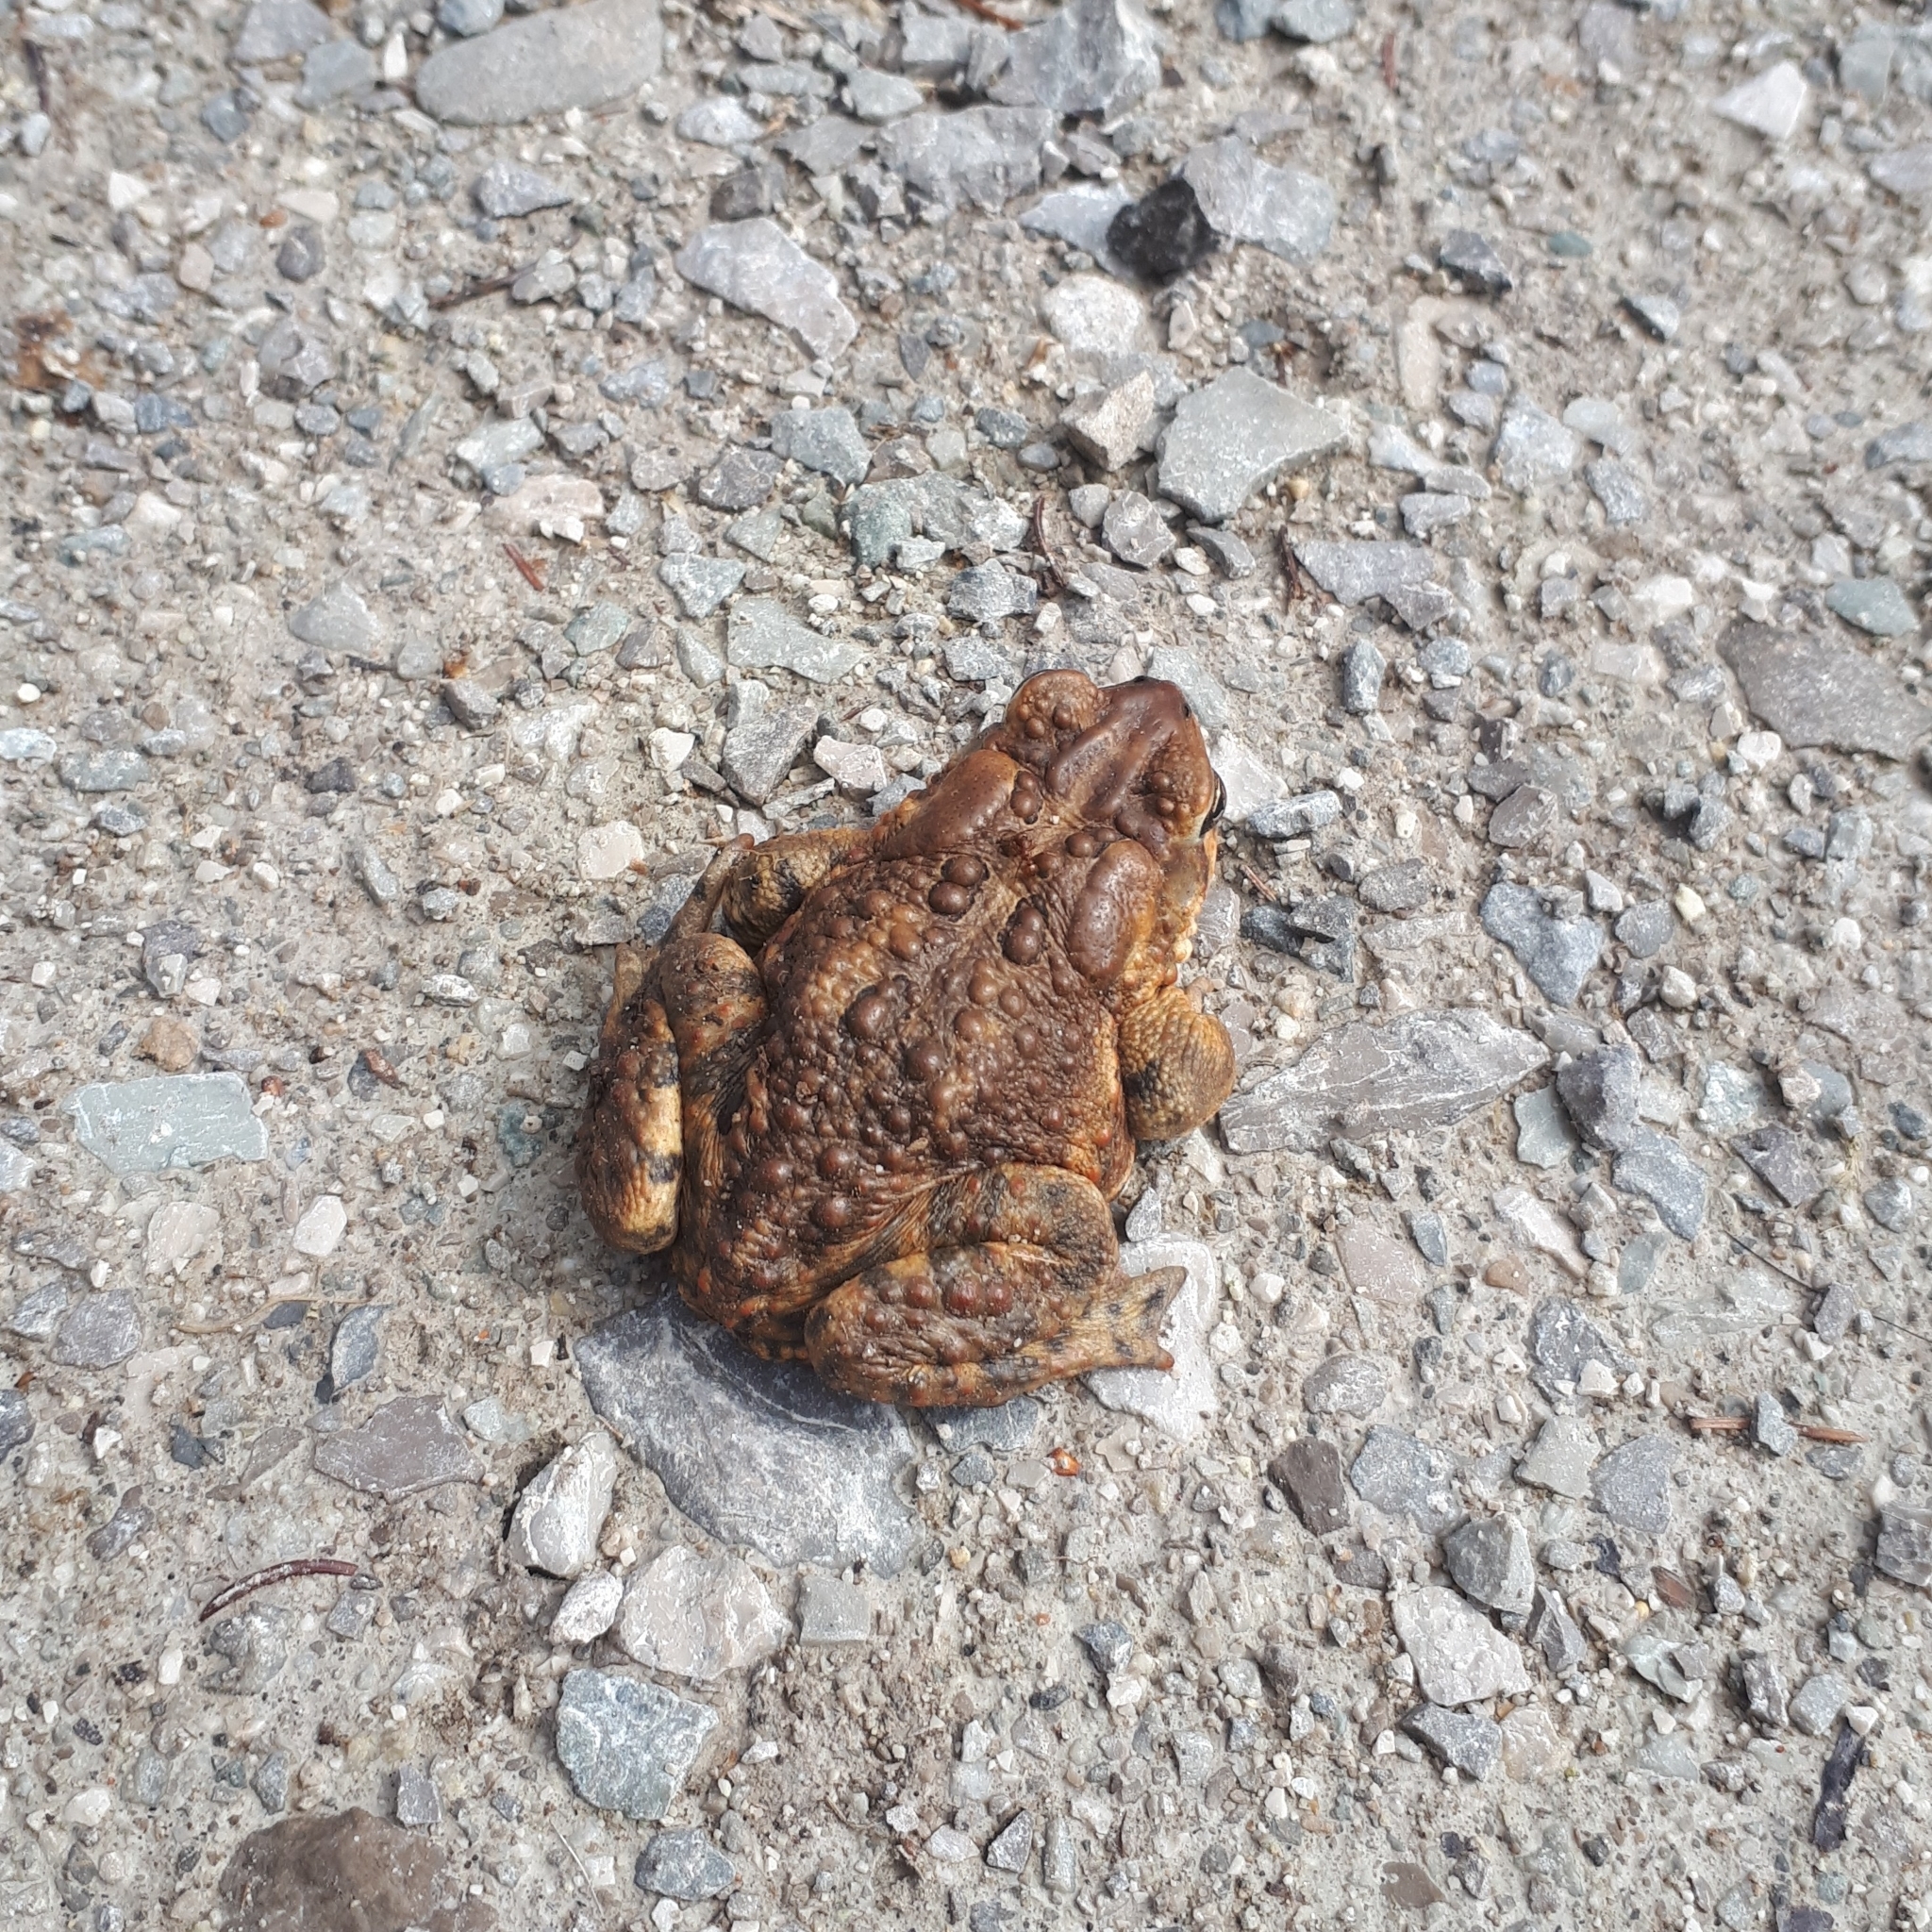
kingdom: Animalia
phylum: Chordata
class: Amphibia
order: Anura
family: Bufonidae
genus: Anaxyrus
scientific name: Anaxyrus americanus
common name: American toad
